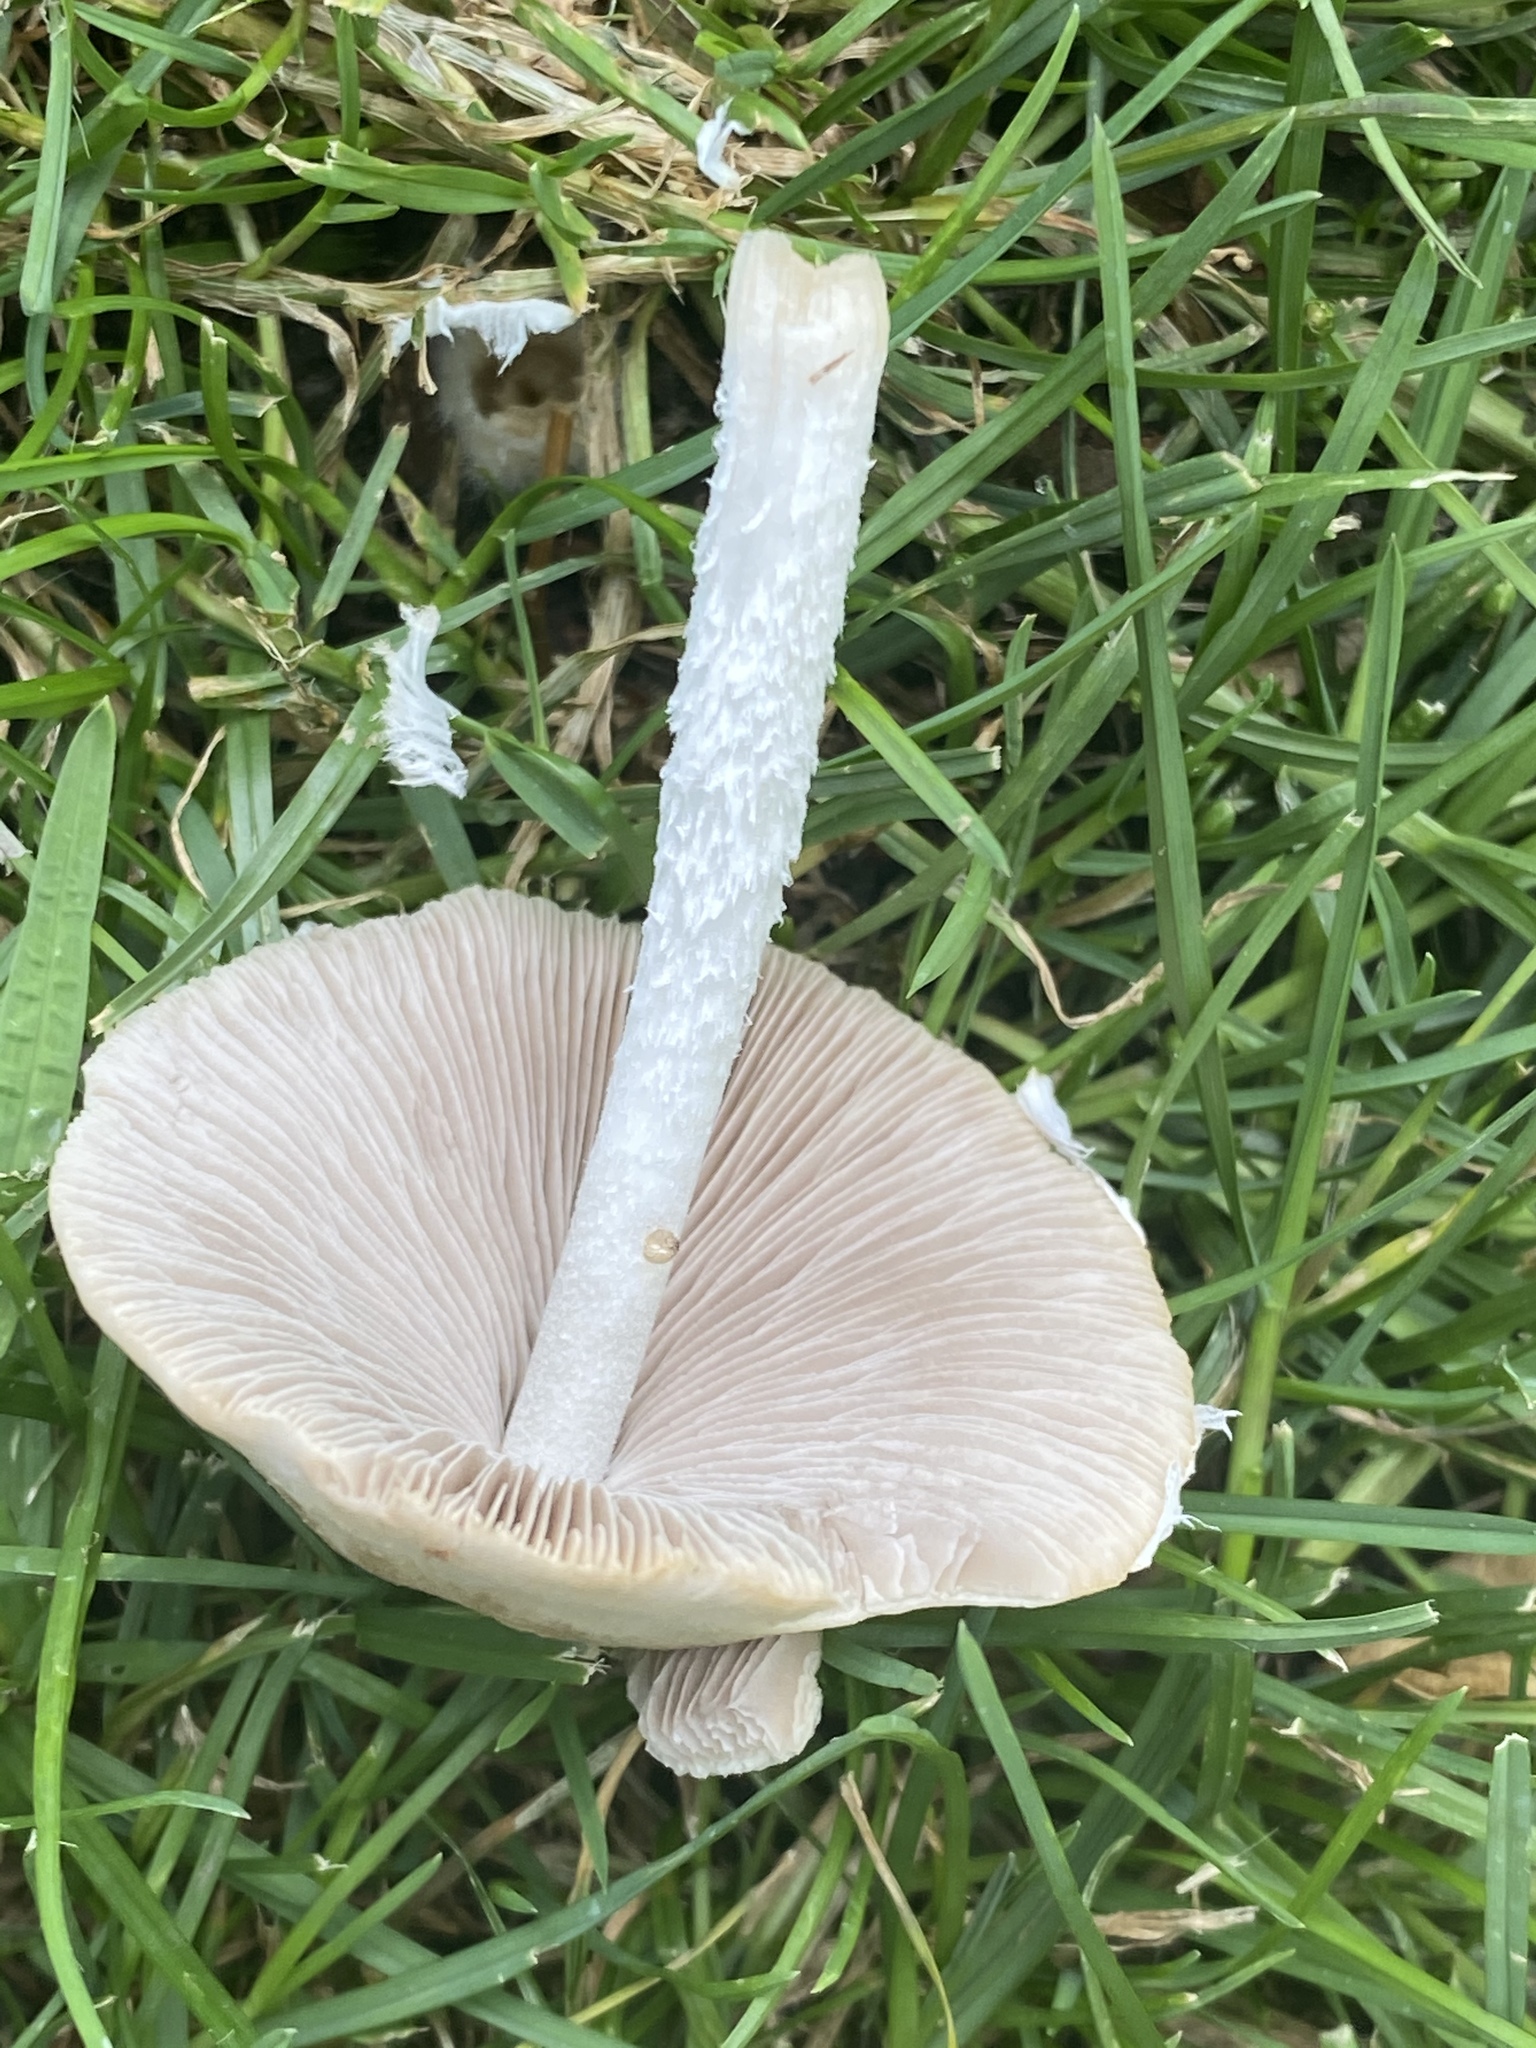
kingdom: Fungi
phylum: Basidiomycota
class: Agaricomycetes
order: Agaricales
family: Psathyrellaceae
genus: Candolleomyces
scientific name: Candolleomyces candolleanus
